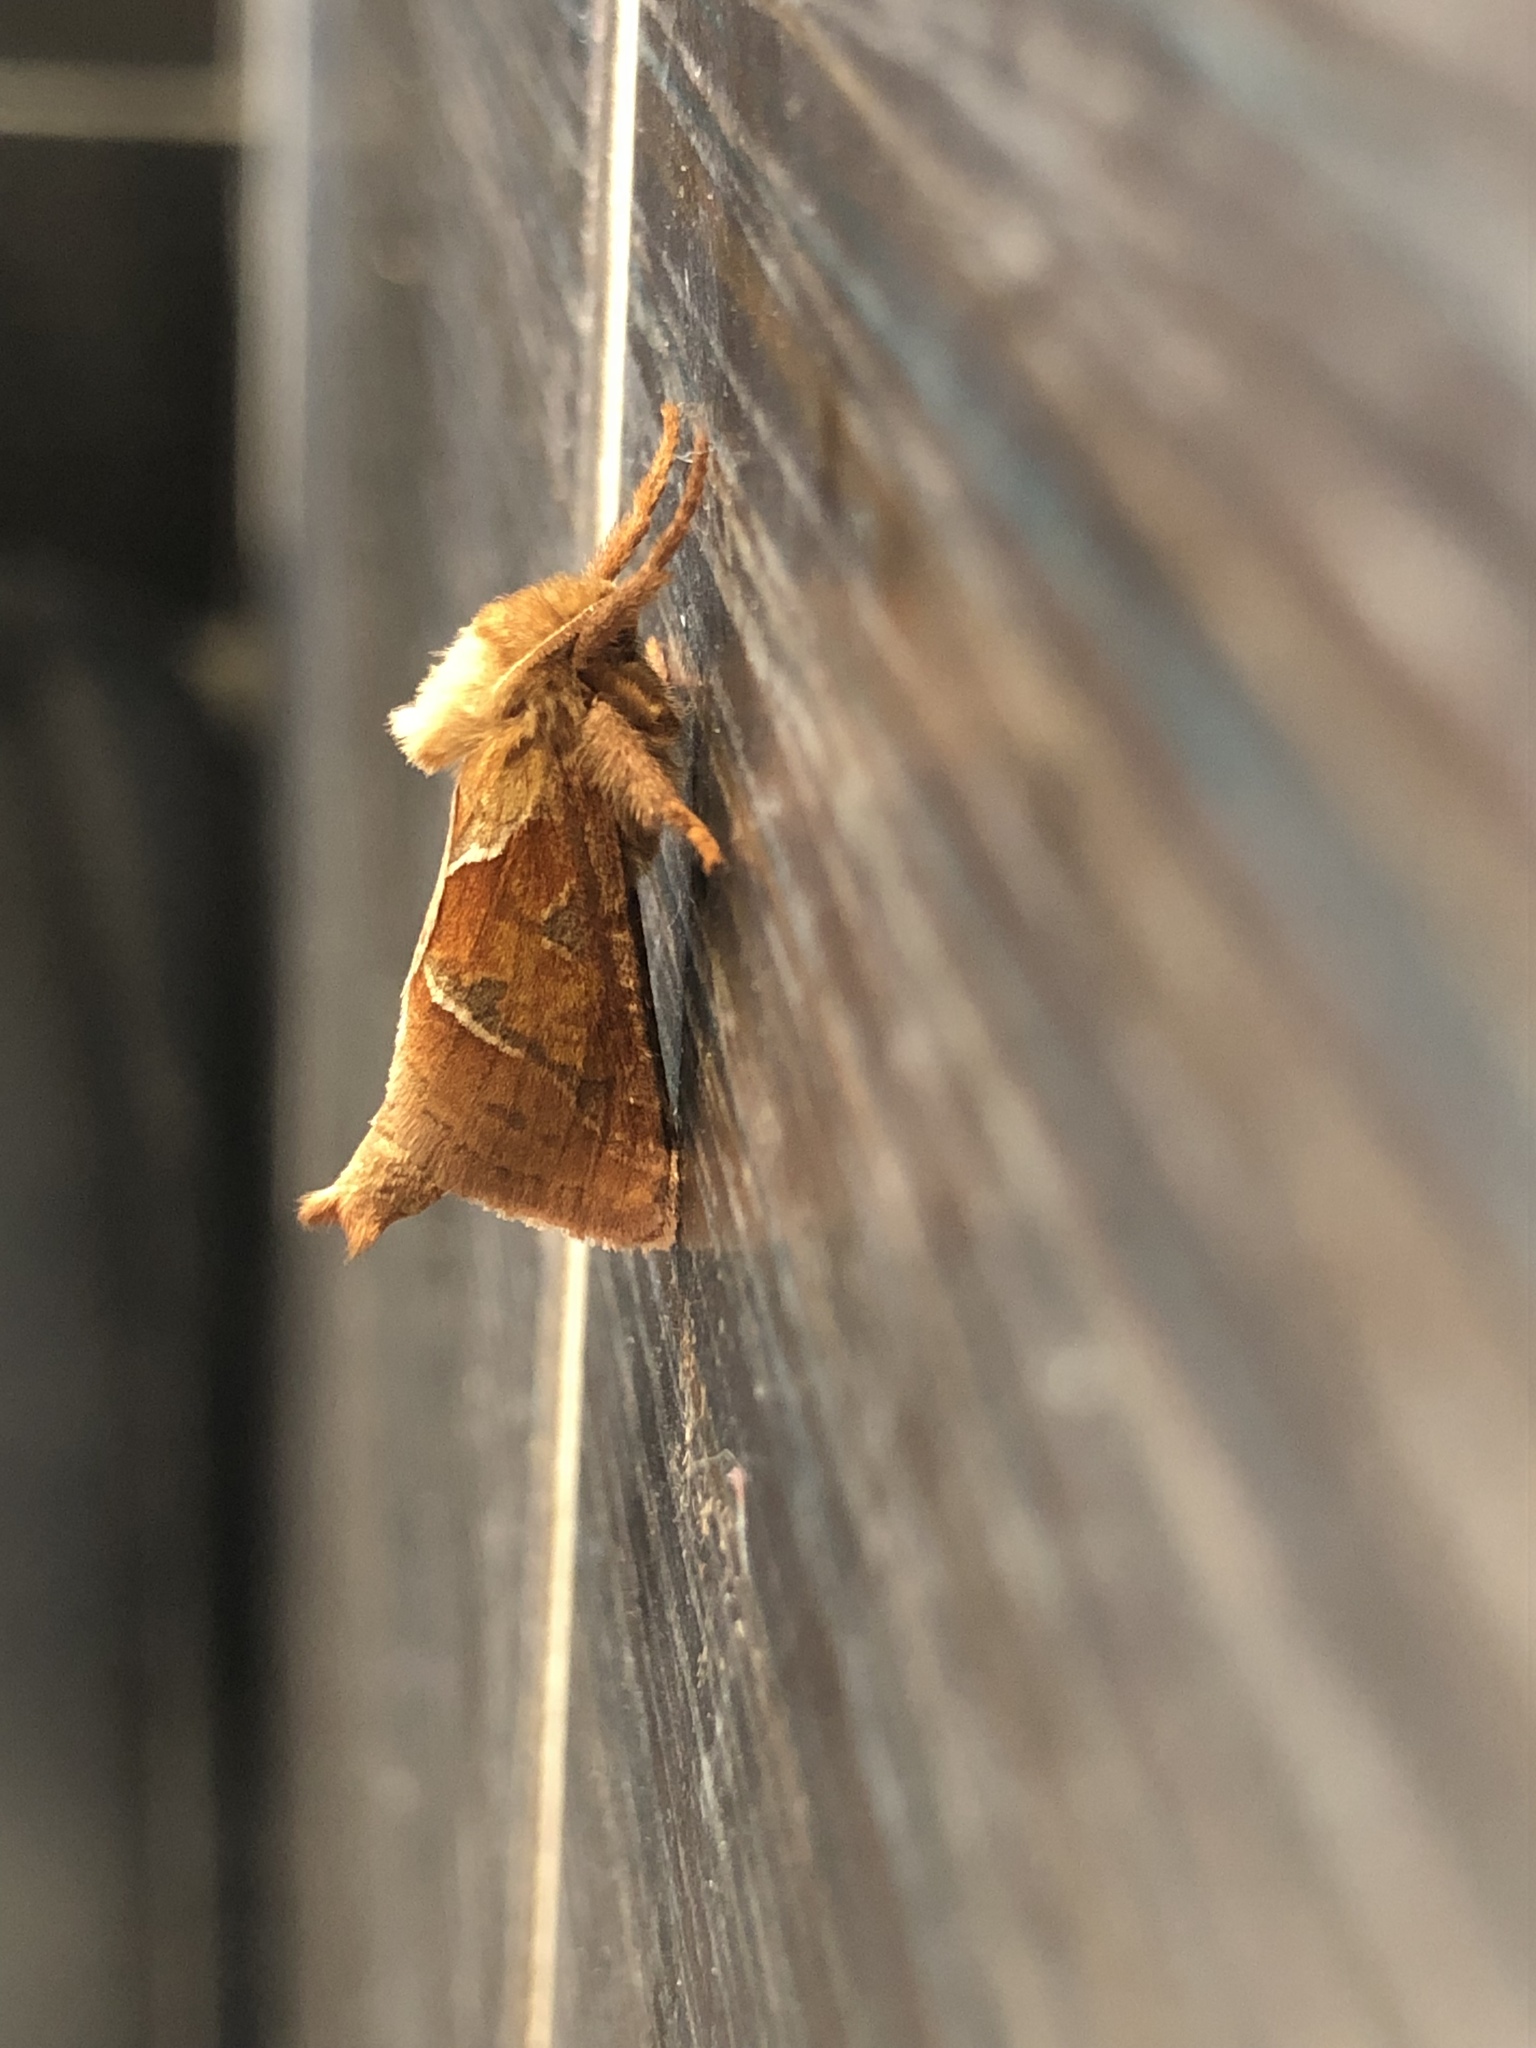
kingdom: Animalia
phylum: Arthropoda
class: Insecta
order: Lepidoptera
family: Hepialidae
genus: Triodia
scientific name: Triodia sylvina
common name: Orange swift
